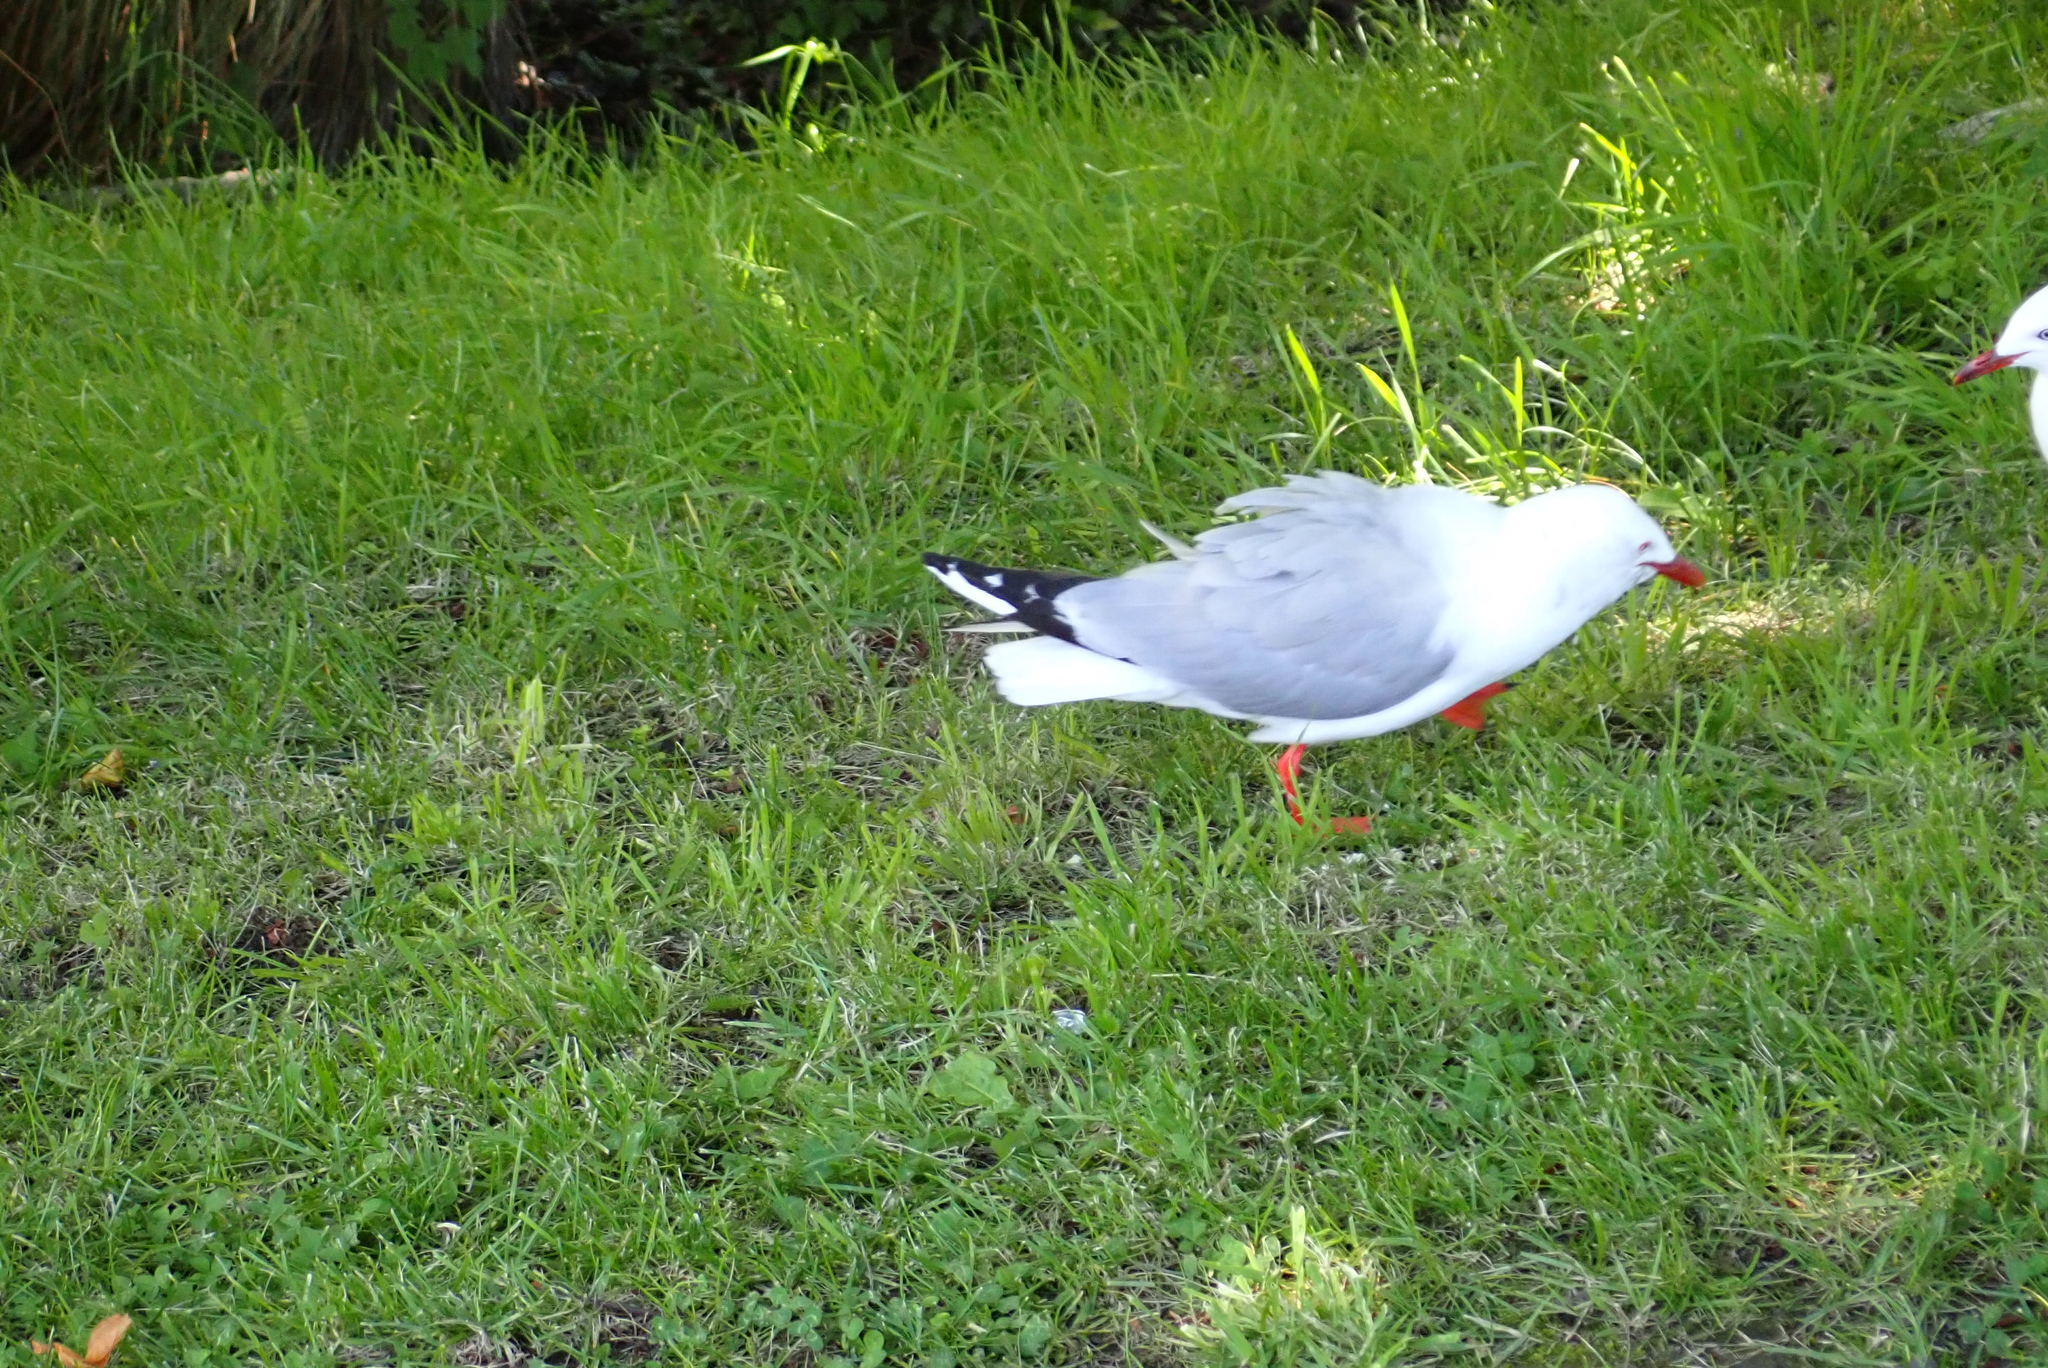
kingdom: Animalia
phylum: Chordata
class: Aves
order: Charadriiformes
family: Laridae
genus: Chroicocephalus
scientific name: Chroicocephalus novaehollandiae
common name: Silver gull
